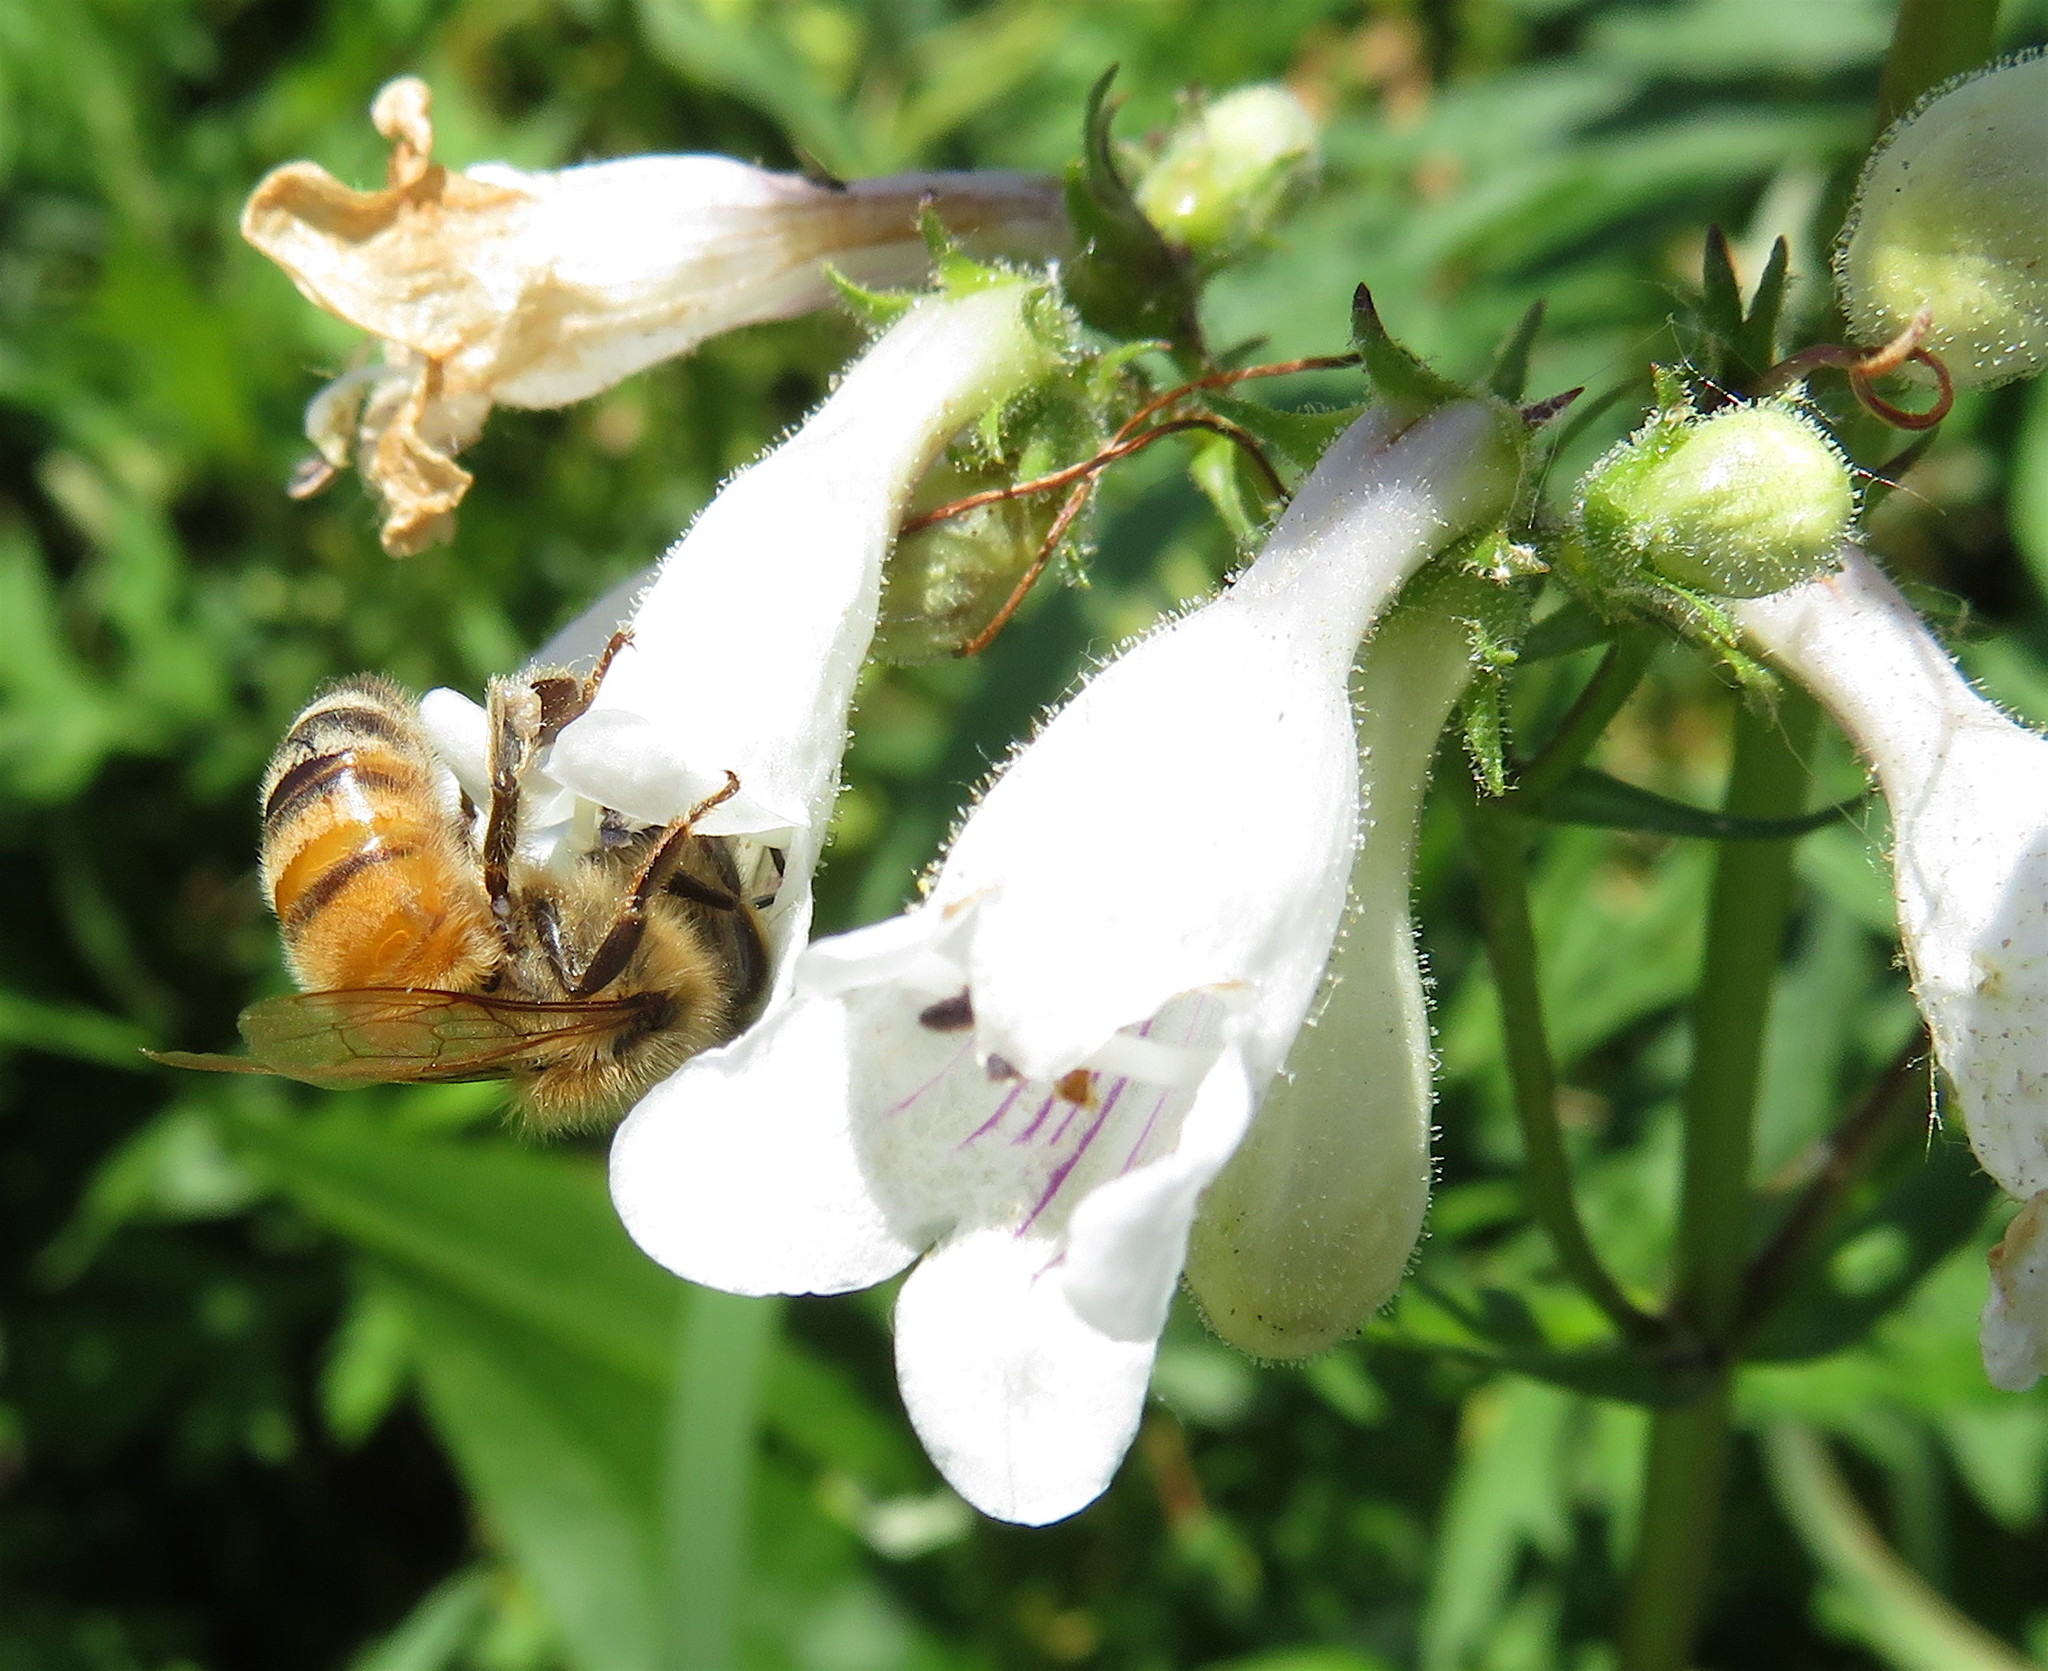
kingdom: Animalia
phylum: Arthropoda
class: Insecta
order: Hymenoptera
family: Apidae
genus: Apis
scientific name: Apis mellifera
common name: Honey bee
